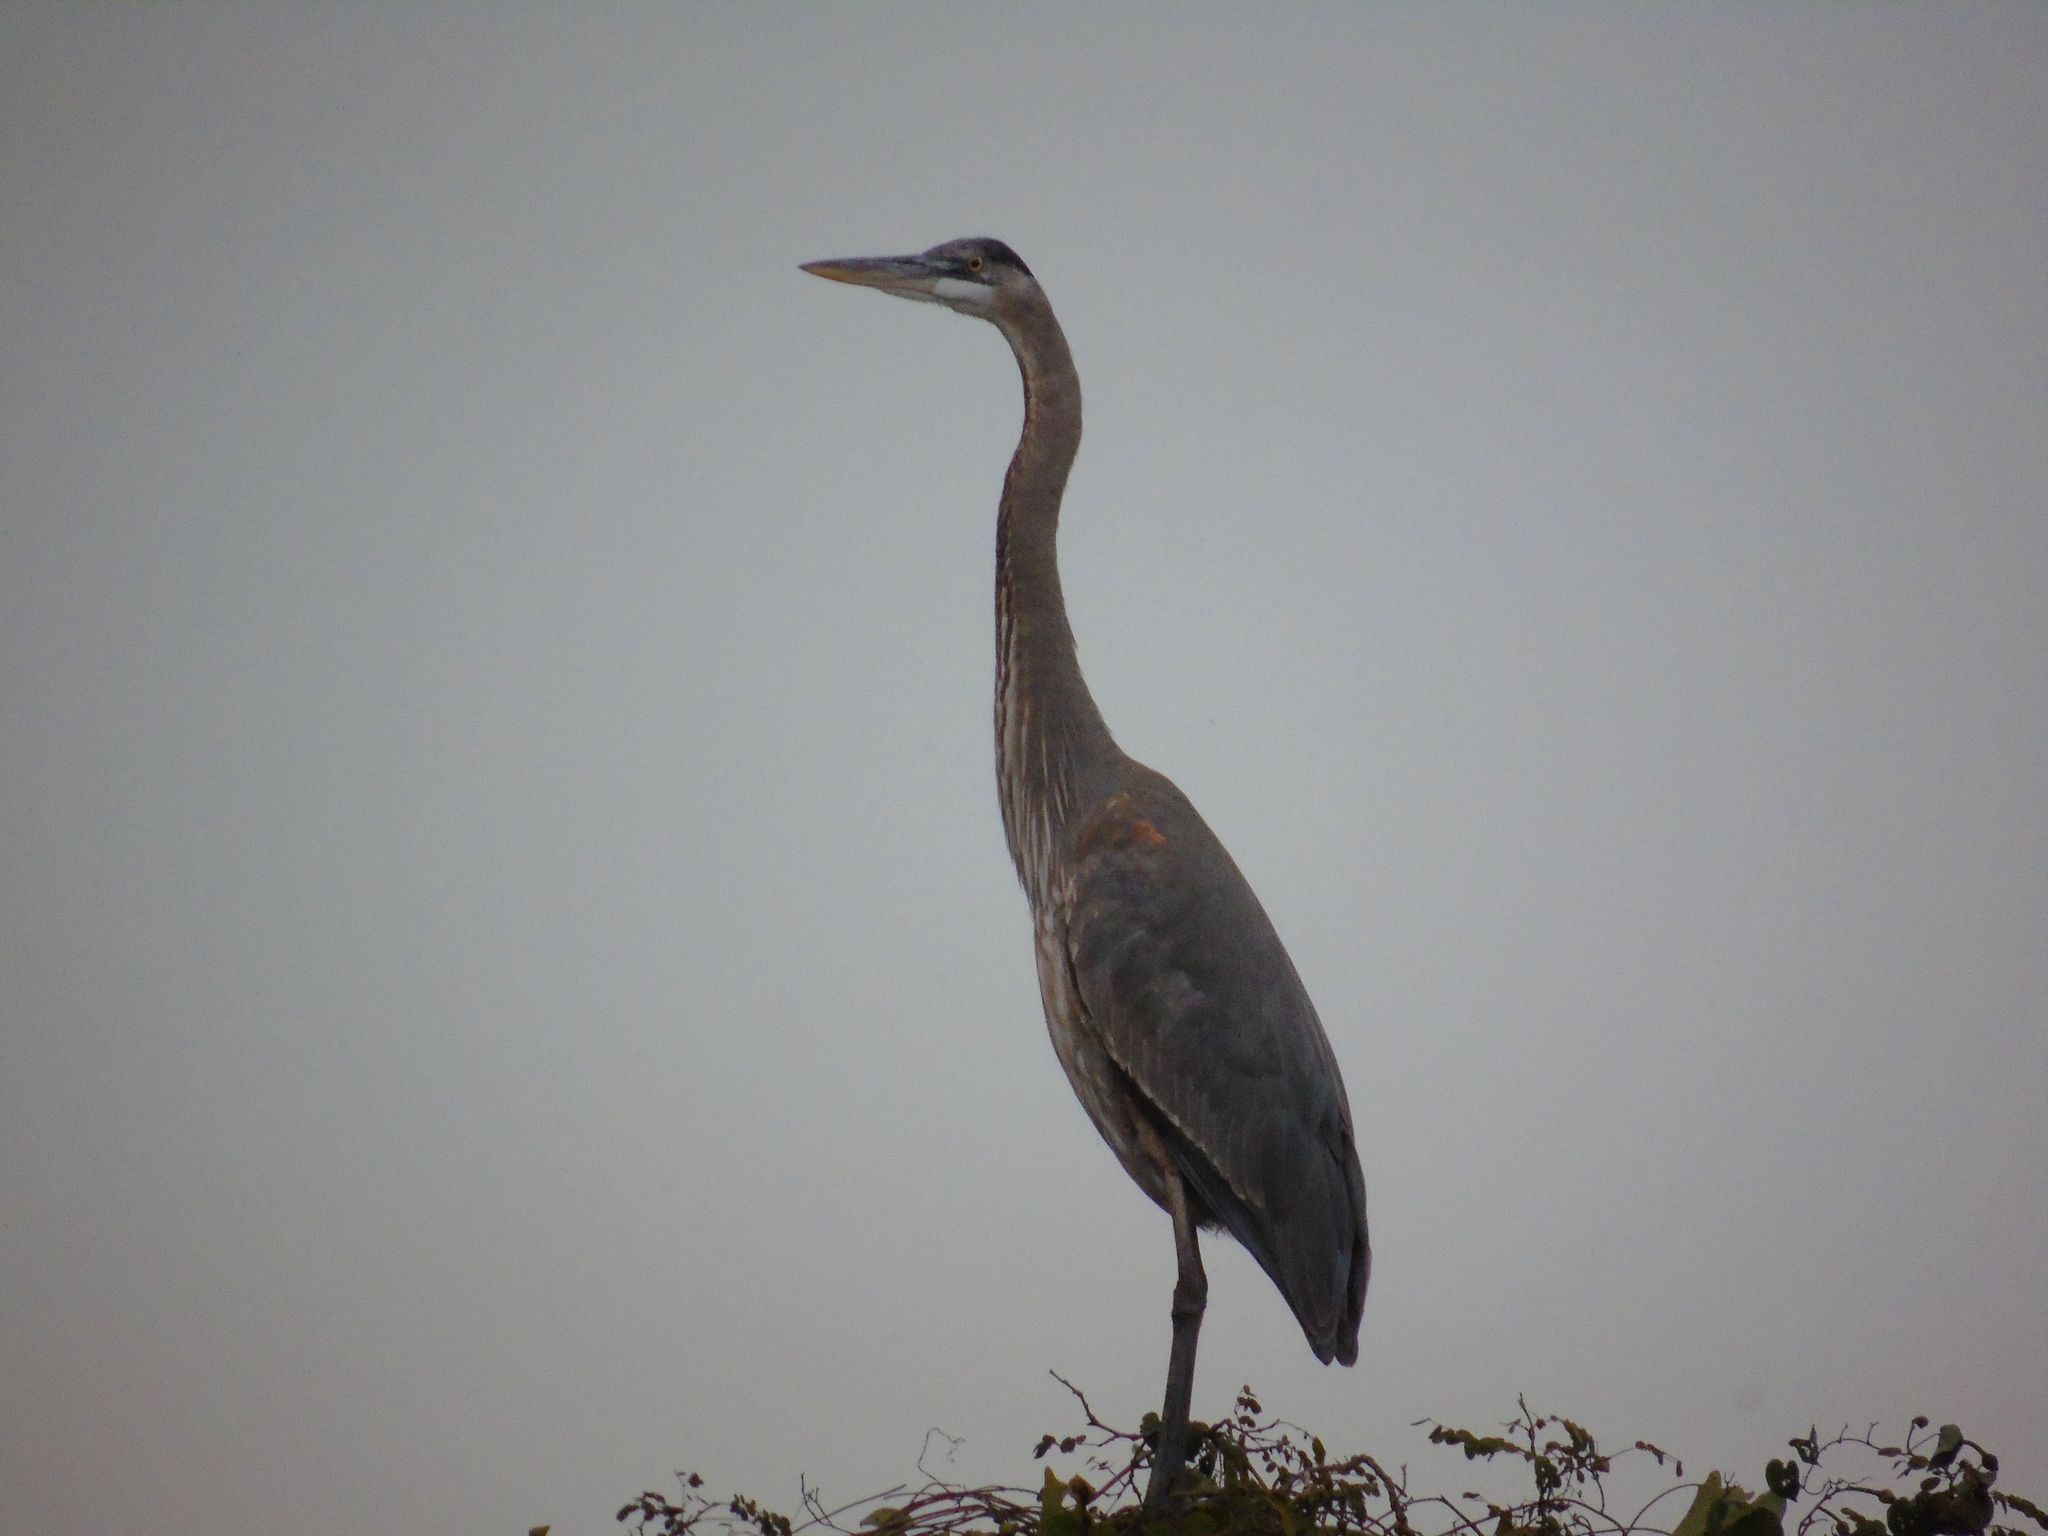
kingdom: Animalia
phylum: Chordata
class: Aves
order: Pelecaniformes
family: Ardeidae
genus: Ardea
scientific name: Ardea herodias
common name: Great blue heron
